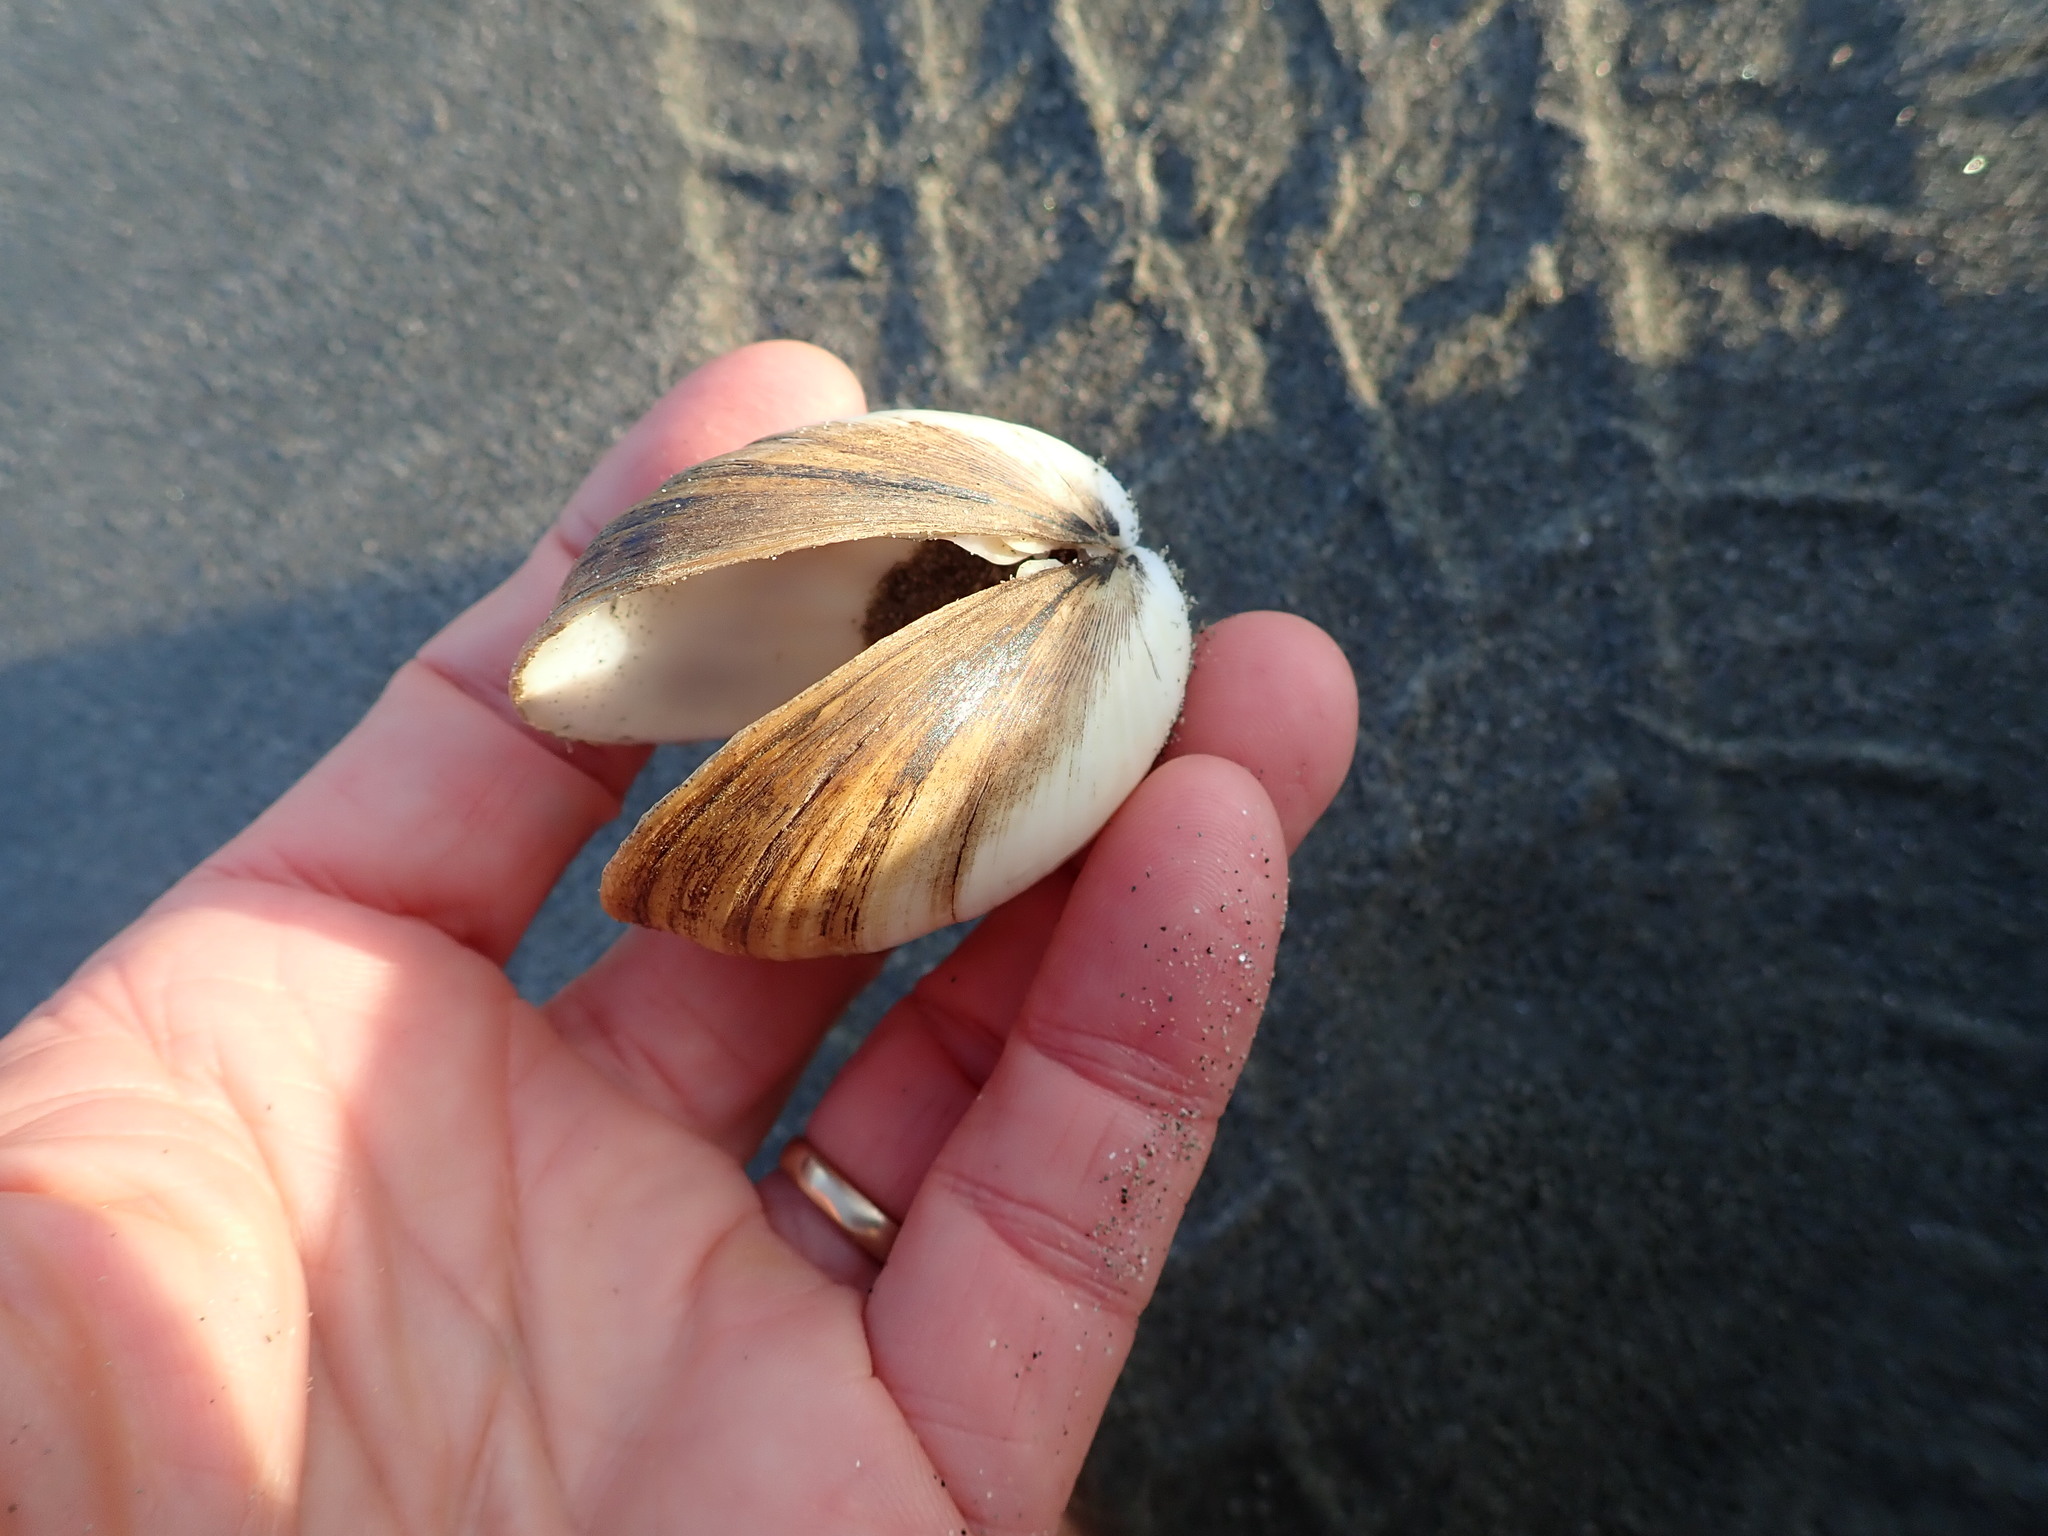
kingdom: Animalia
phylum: Mollusca
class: Bivalvia
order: Venerida
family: Mactridae
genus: Spisula
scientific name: Spisula discors
